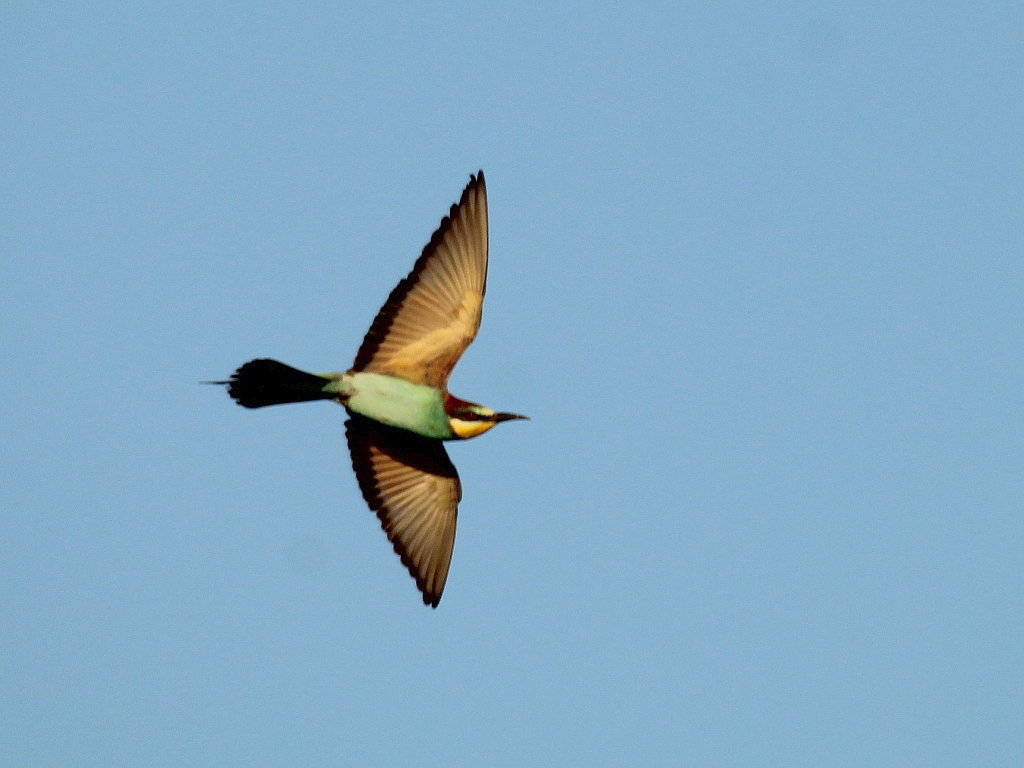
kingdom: Animalia
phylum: Chordata
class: Aves
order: Coraciiformes
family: Meropidae
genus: Merops
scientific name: Merops apiaster
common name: European bee-eater
